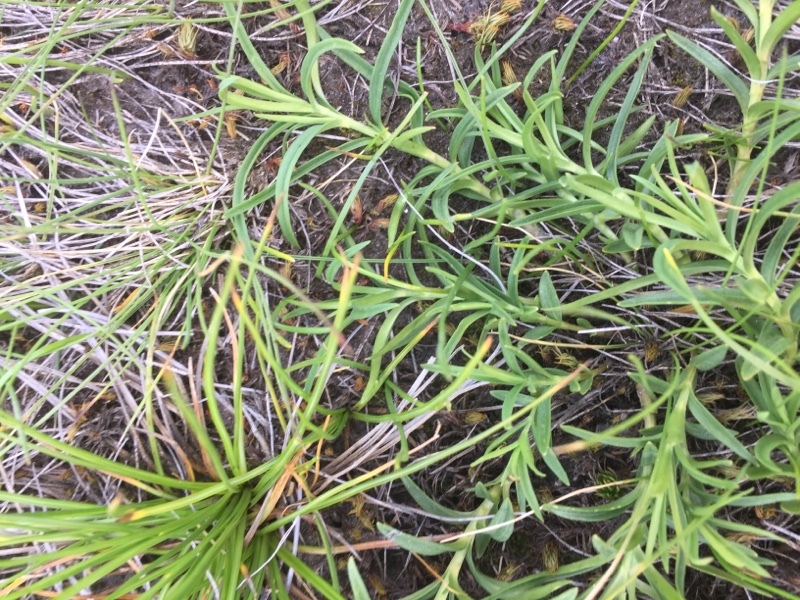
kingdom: Plantae
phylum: Tracheophyta
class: Magnoliopsida
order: Gentianales
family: Gentianaceae
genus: Gentiana
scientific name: Gentiana pneumonanthe
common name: Marsh gentian
